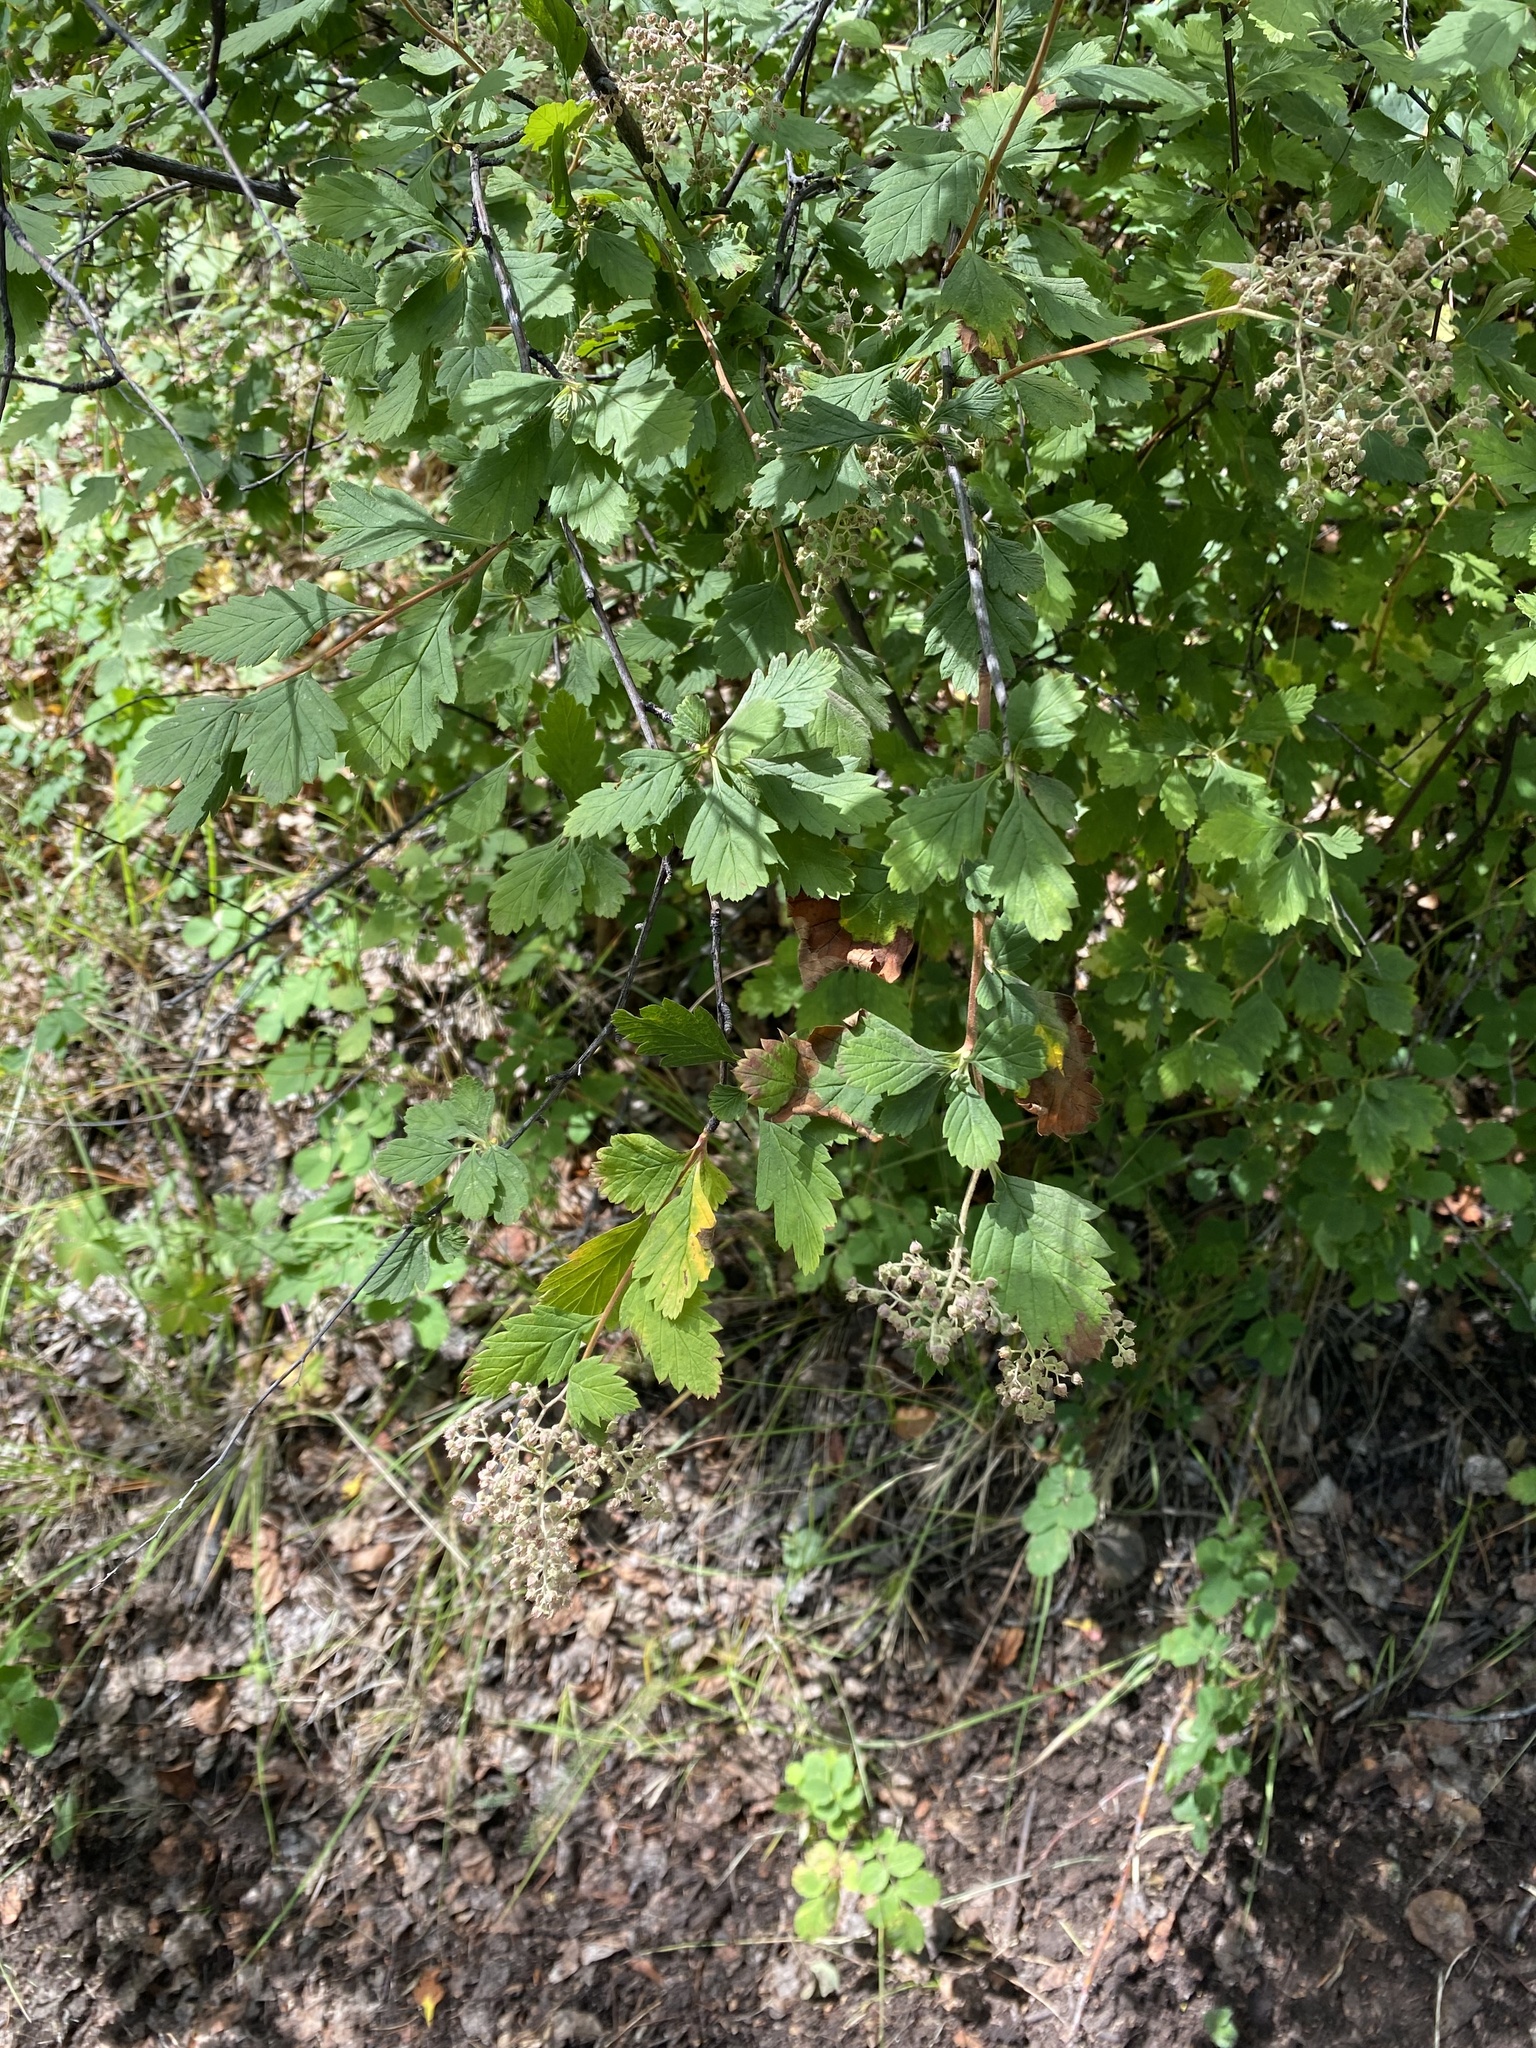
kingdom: Plantae
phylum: Tracheophyta
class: Magnoliopsida
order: Rosales
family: Rosaceae
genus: Holodiscus
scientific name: Holodiscus discolor
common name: Oceanspray
